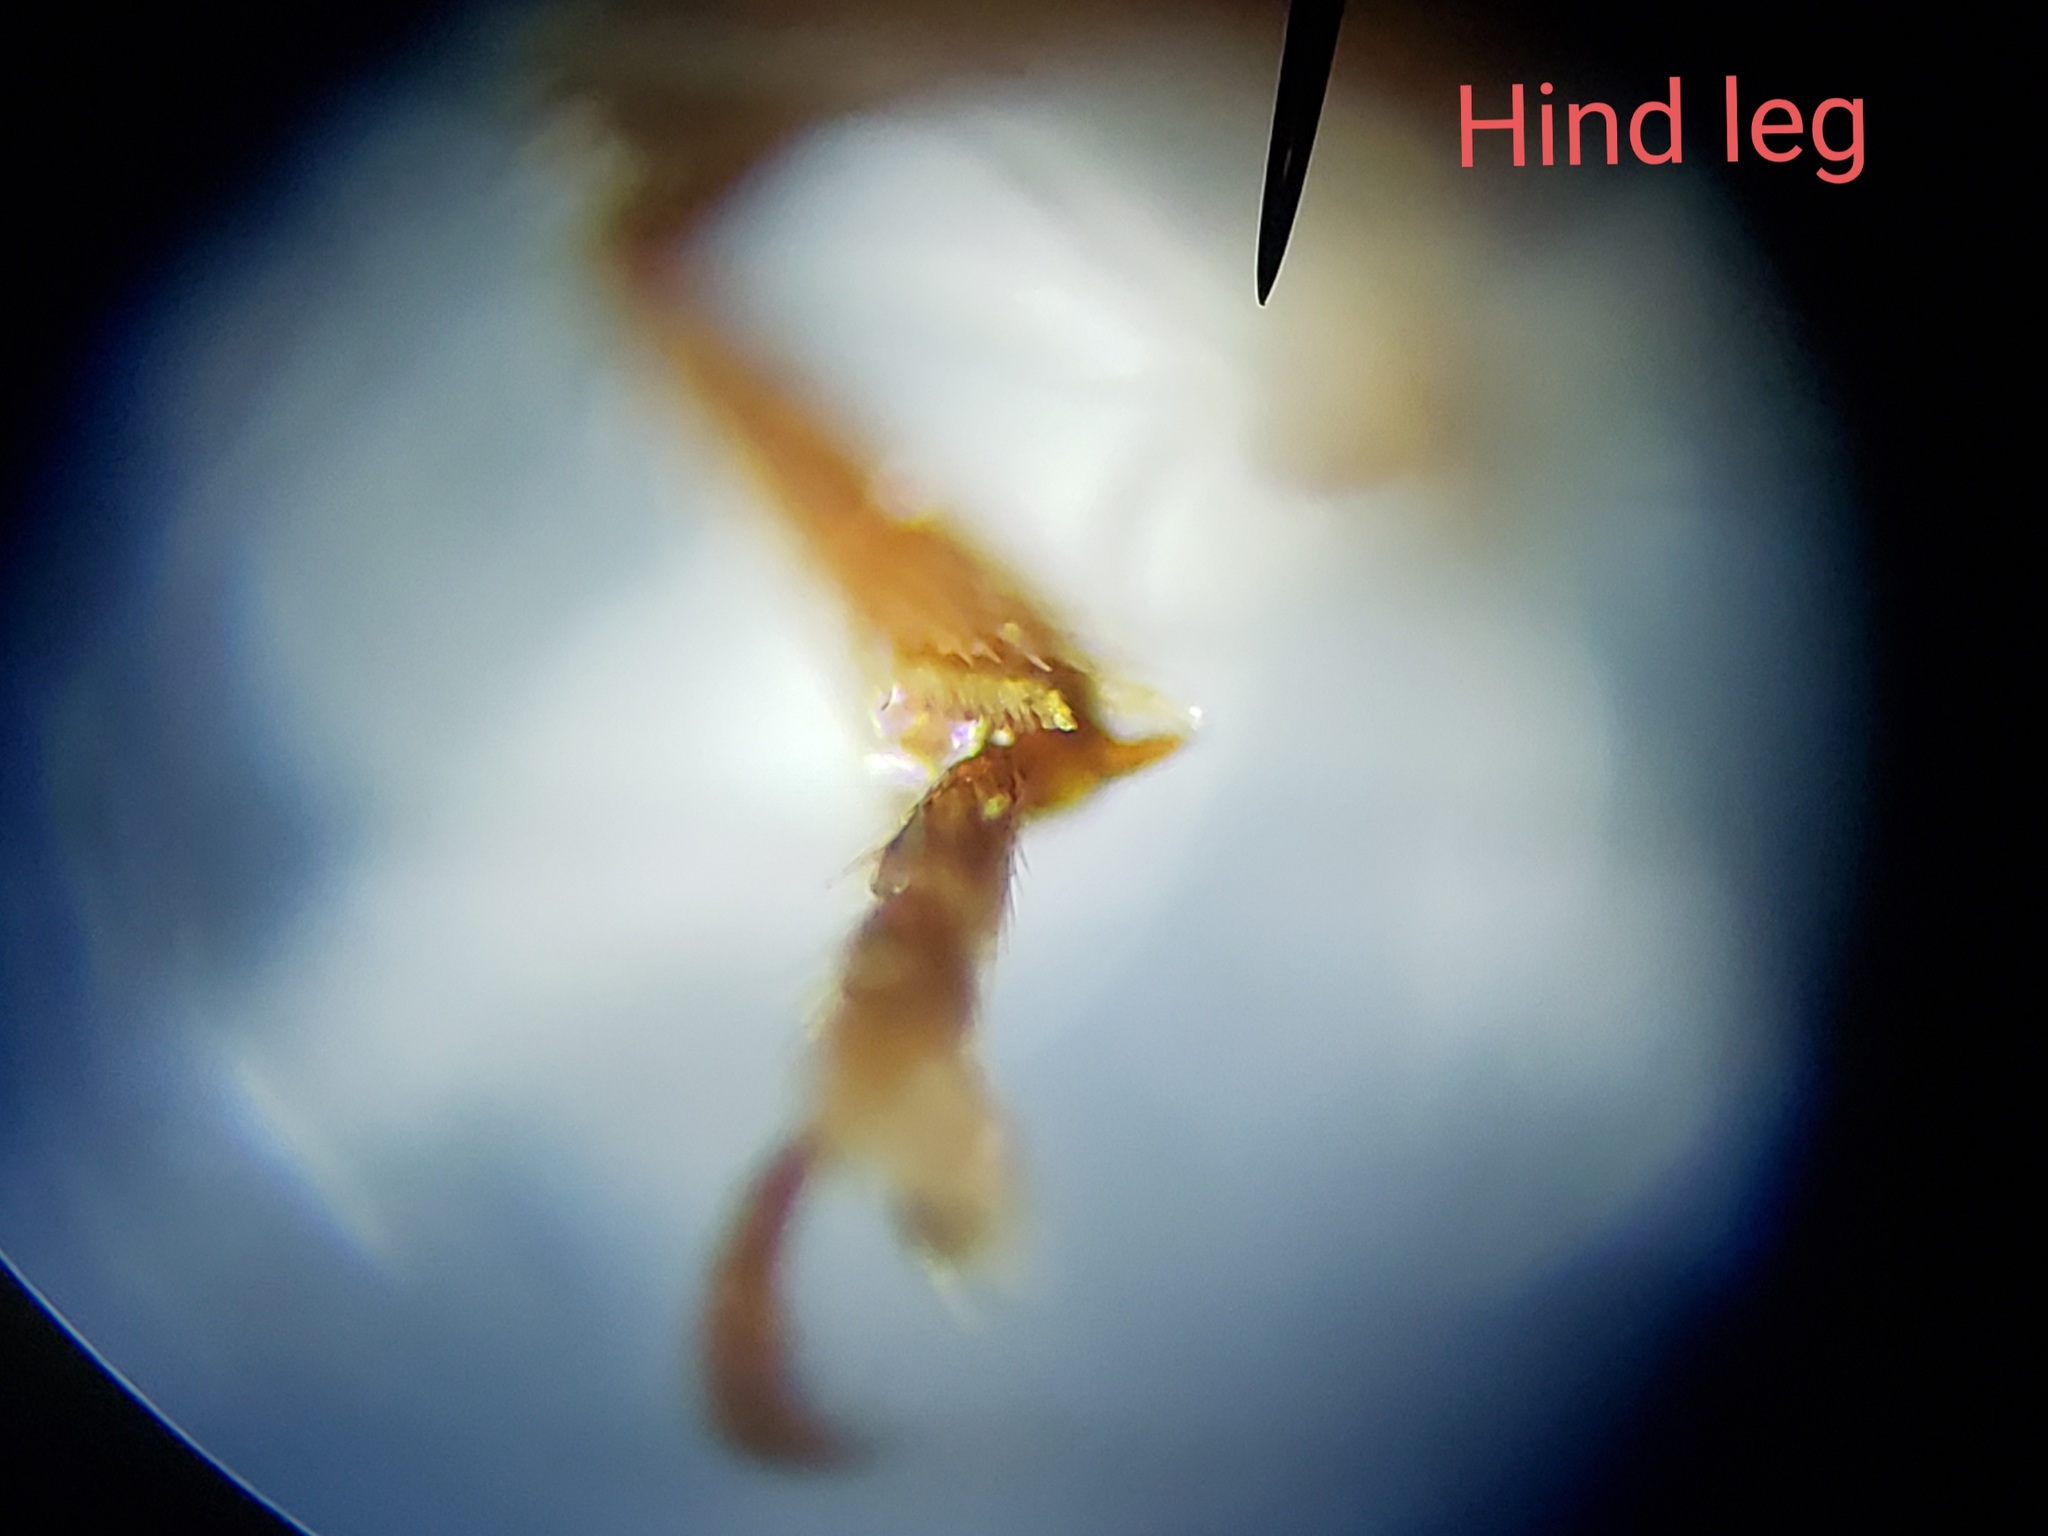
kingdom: Animalia
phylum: Arthropoda
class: Insecta
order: Coleoptera
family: Curculionidae
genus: Nicentrus
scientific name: Nicentrus saccharinus
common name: Sugarcane weevil
